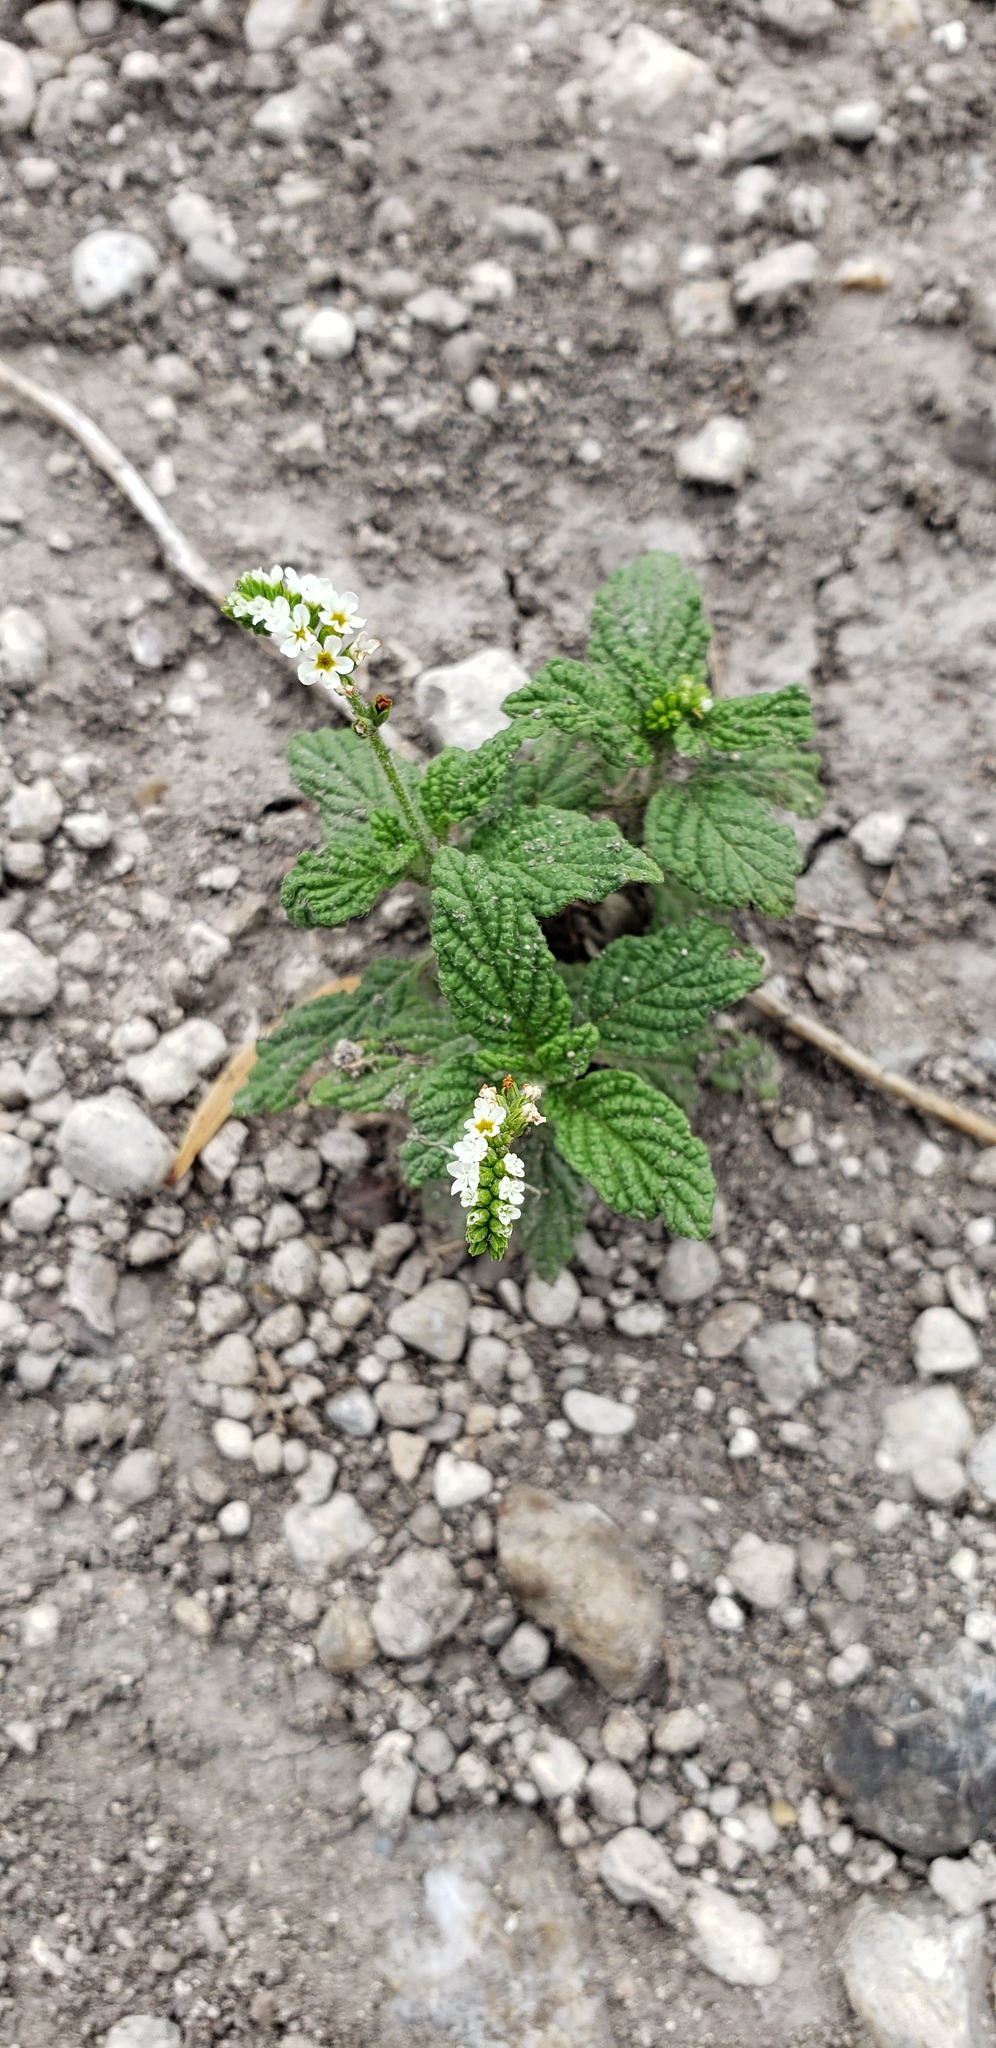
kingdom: Plantae
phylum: Tracheophyta
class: Magnoliopsida
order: Boraginales
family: Heliotropiaceae
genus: Heliotropium
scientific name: Heliotropium angiospermum
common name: Eye bright
